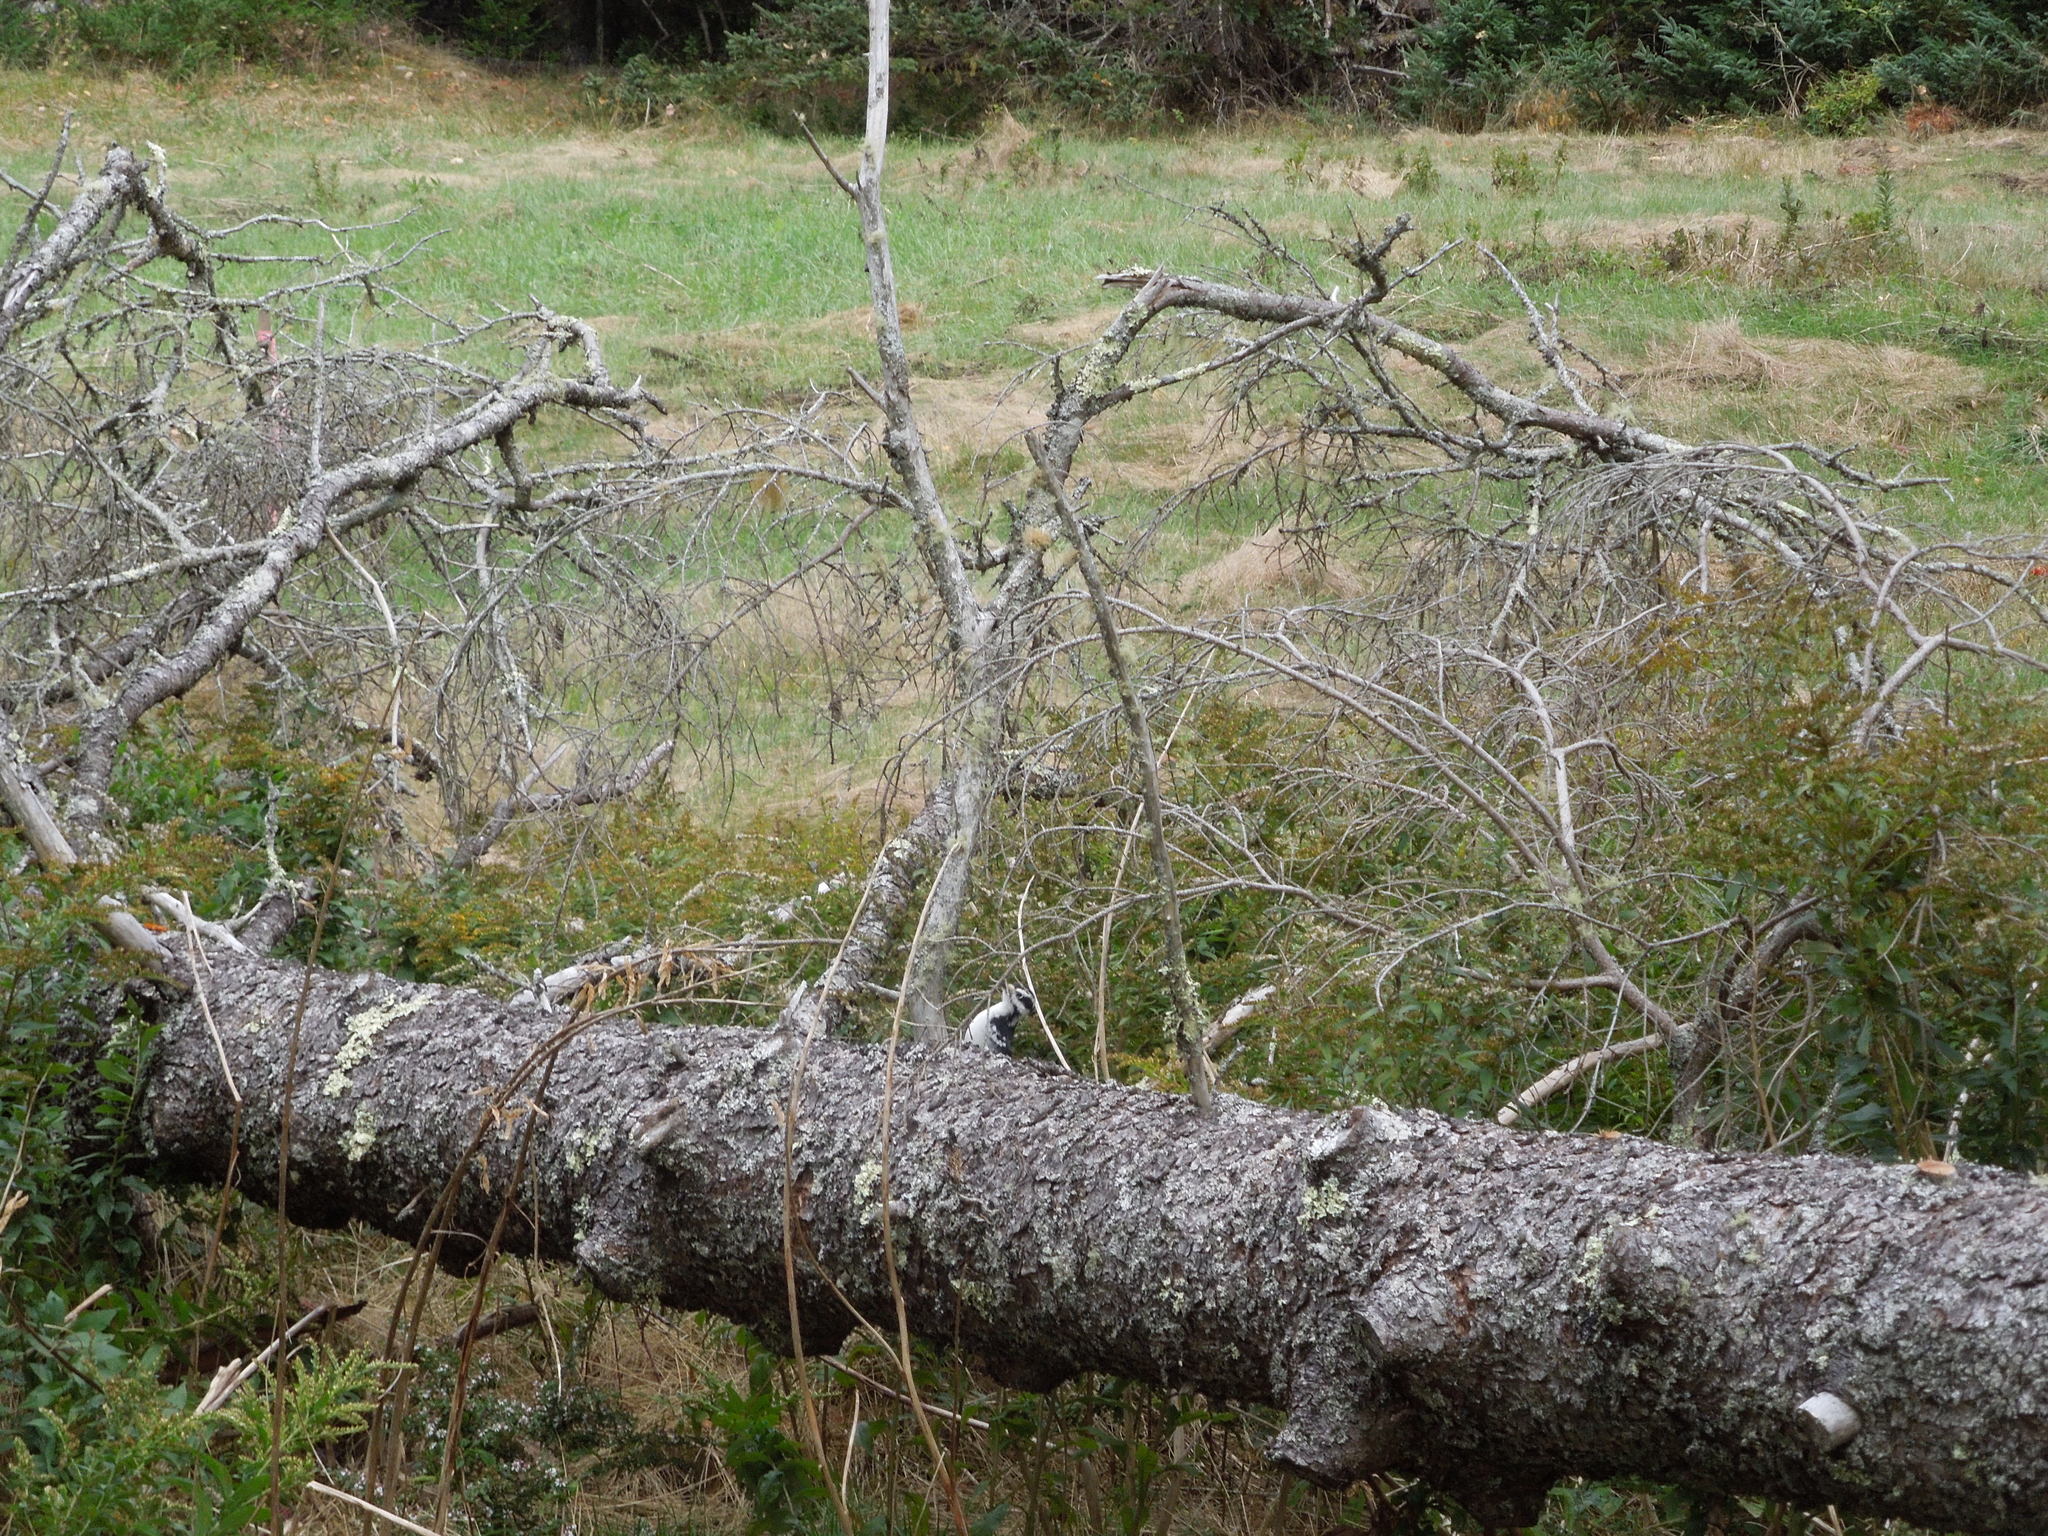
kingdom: Animalia
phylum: Chordata
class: Aves
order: Piciformes
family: Picidae
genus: Leuconotopicus
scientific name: Leuconotopicus villosus
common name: Hairy woodpecker
